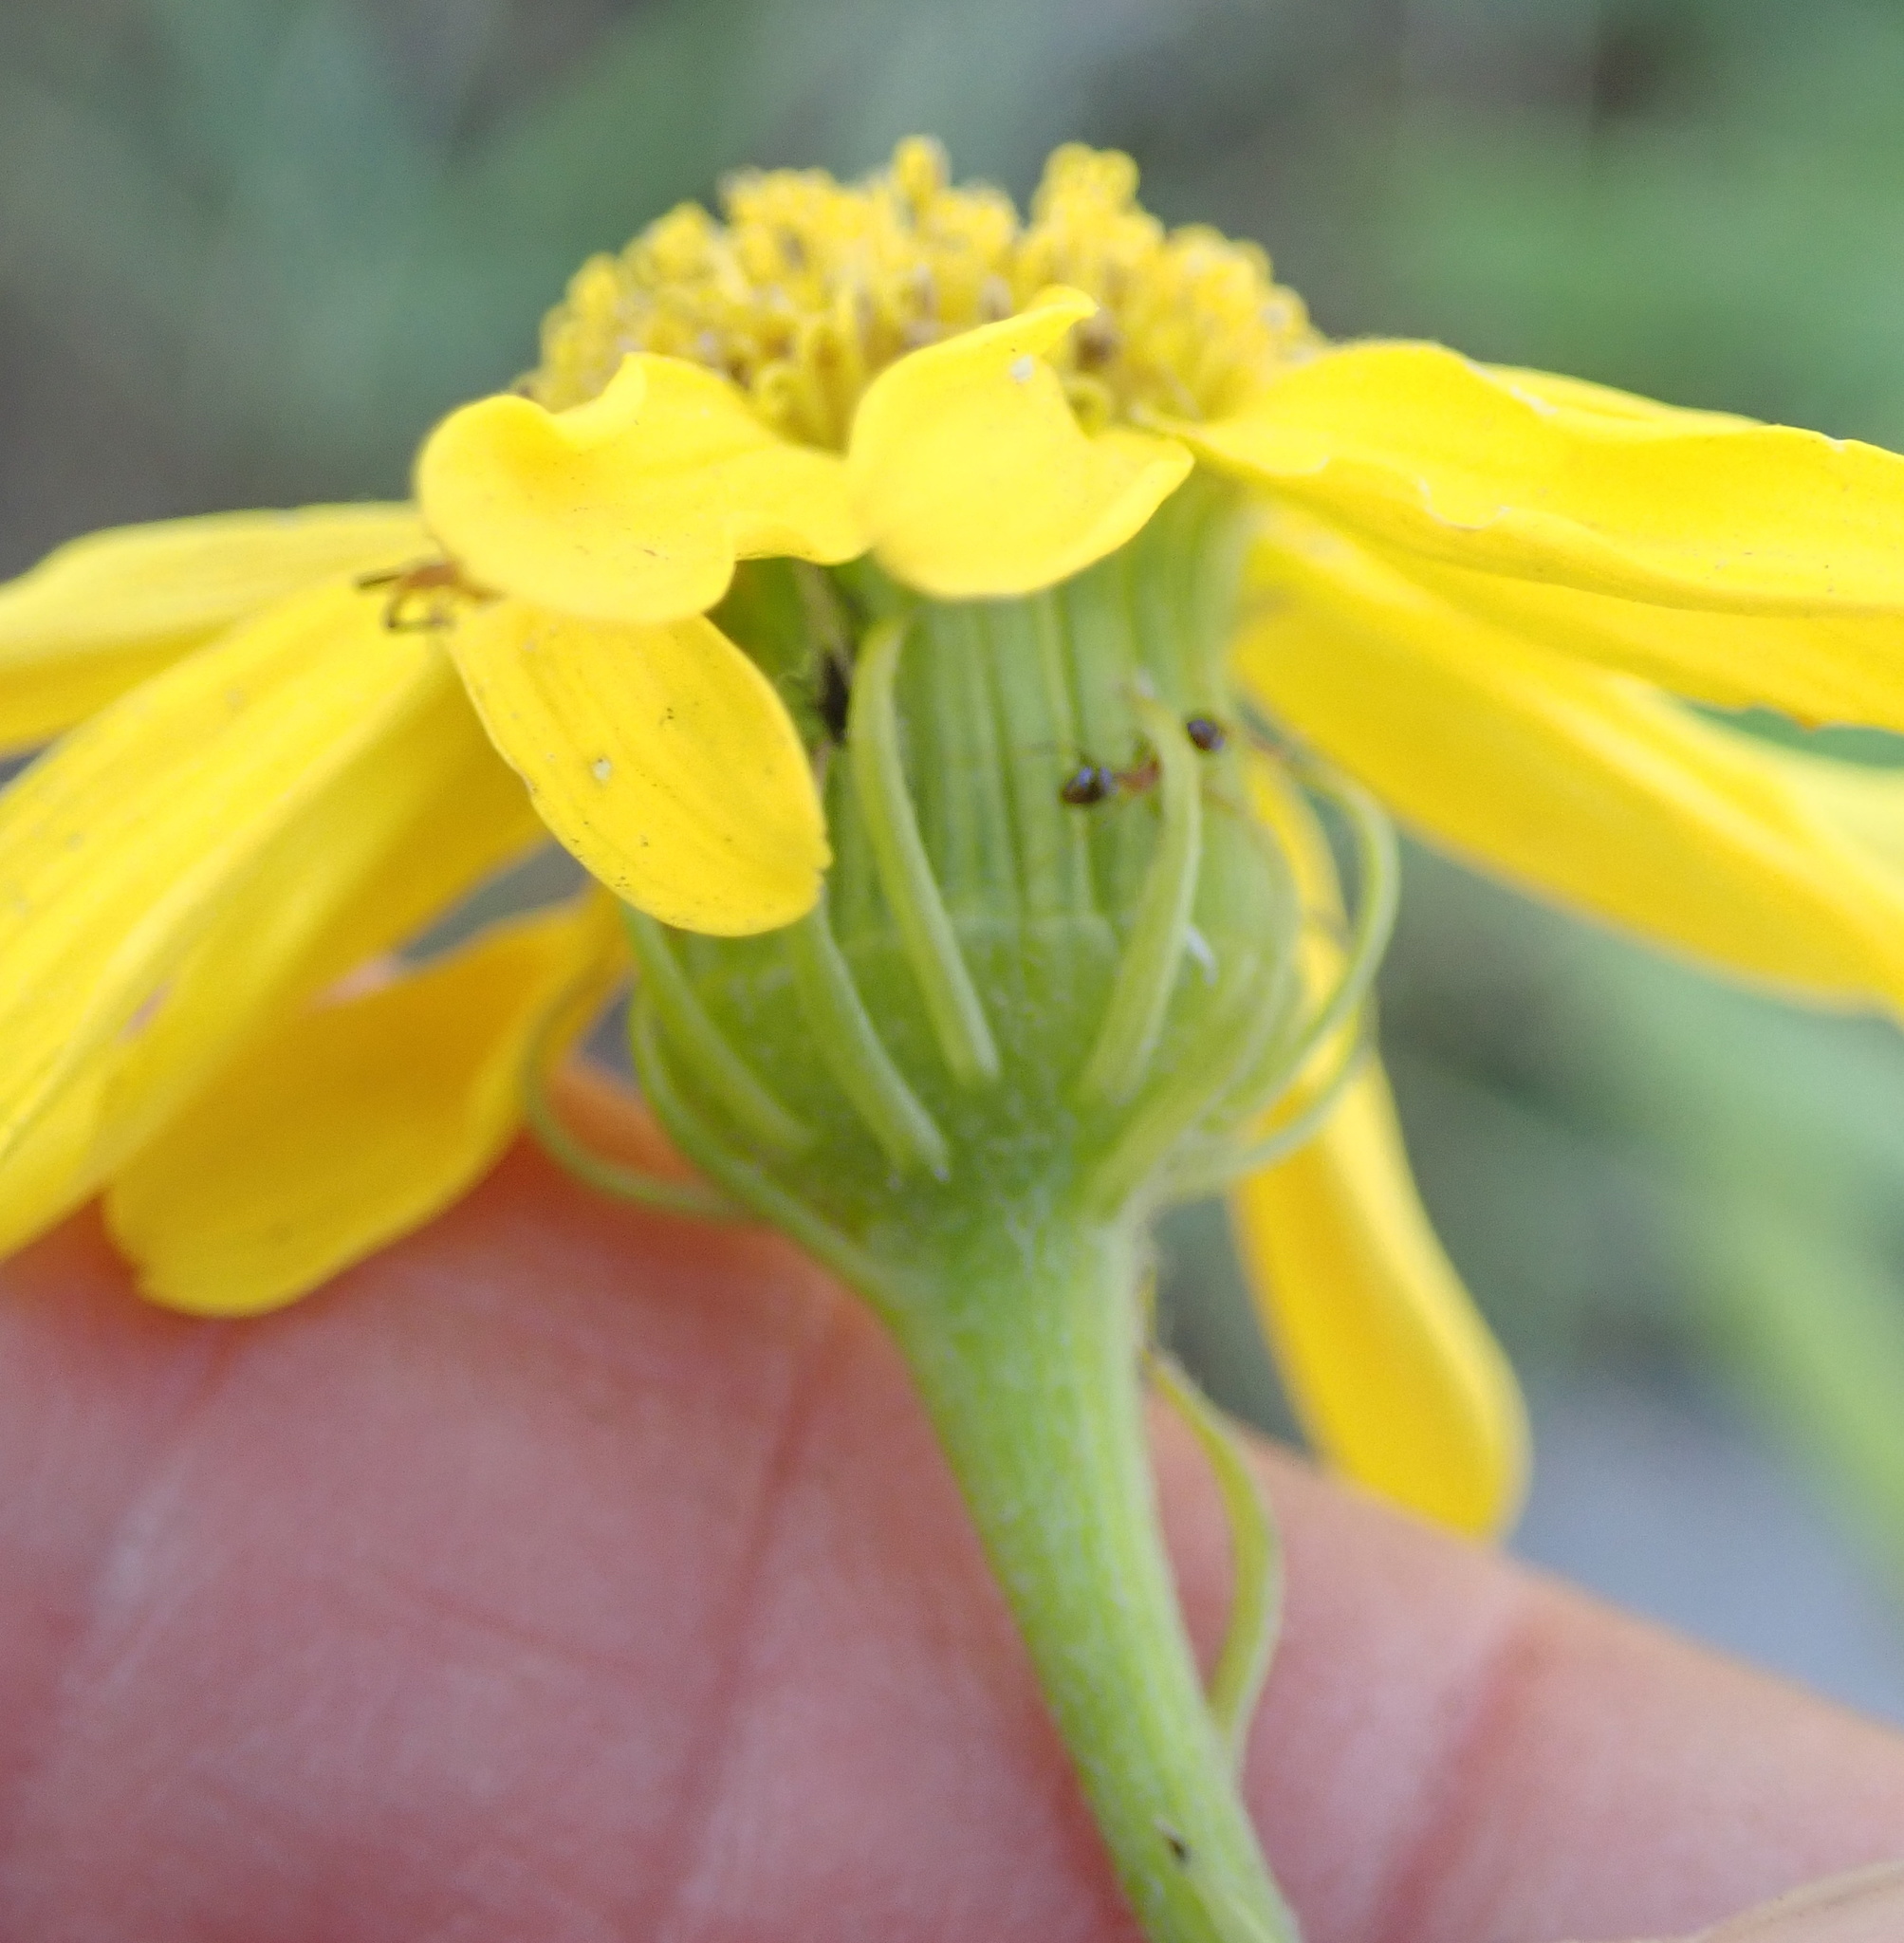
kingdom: Plantae
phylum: Tracheophyta
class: Magnoliopsida
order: Asterales
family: Asteraceae
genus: Senecio
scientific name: Senecio coronatus
